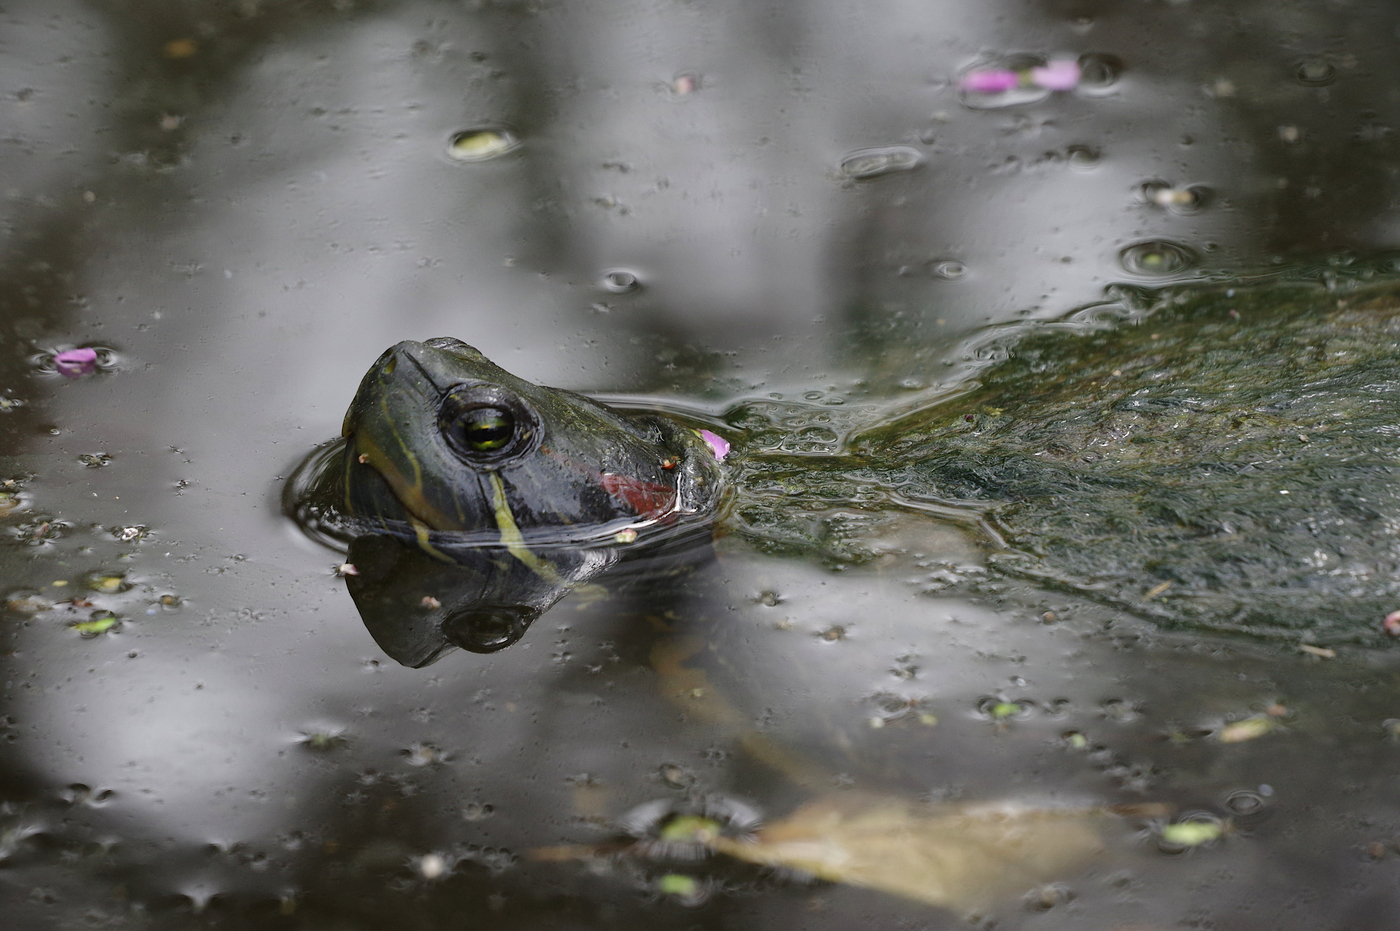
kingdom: Animalia
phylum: Chordata
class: Testudines
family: Emydidae
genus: Trachemys
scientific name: Trachemys scripta
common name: Slider
